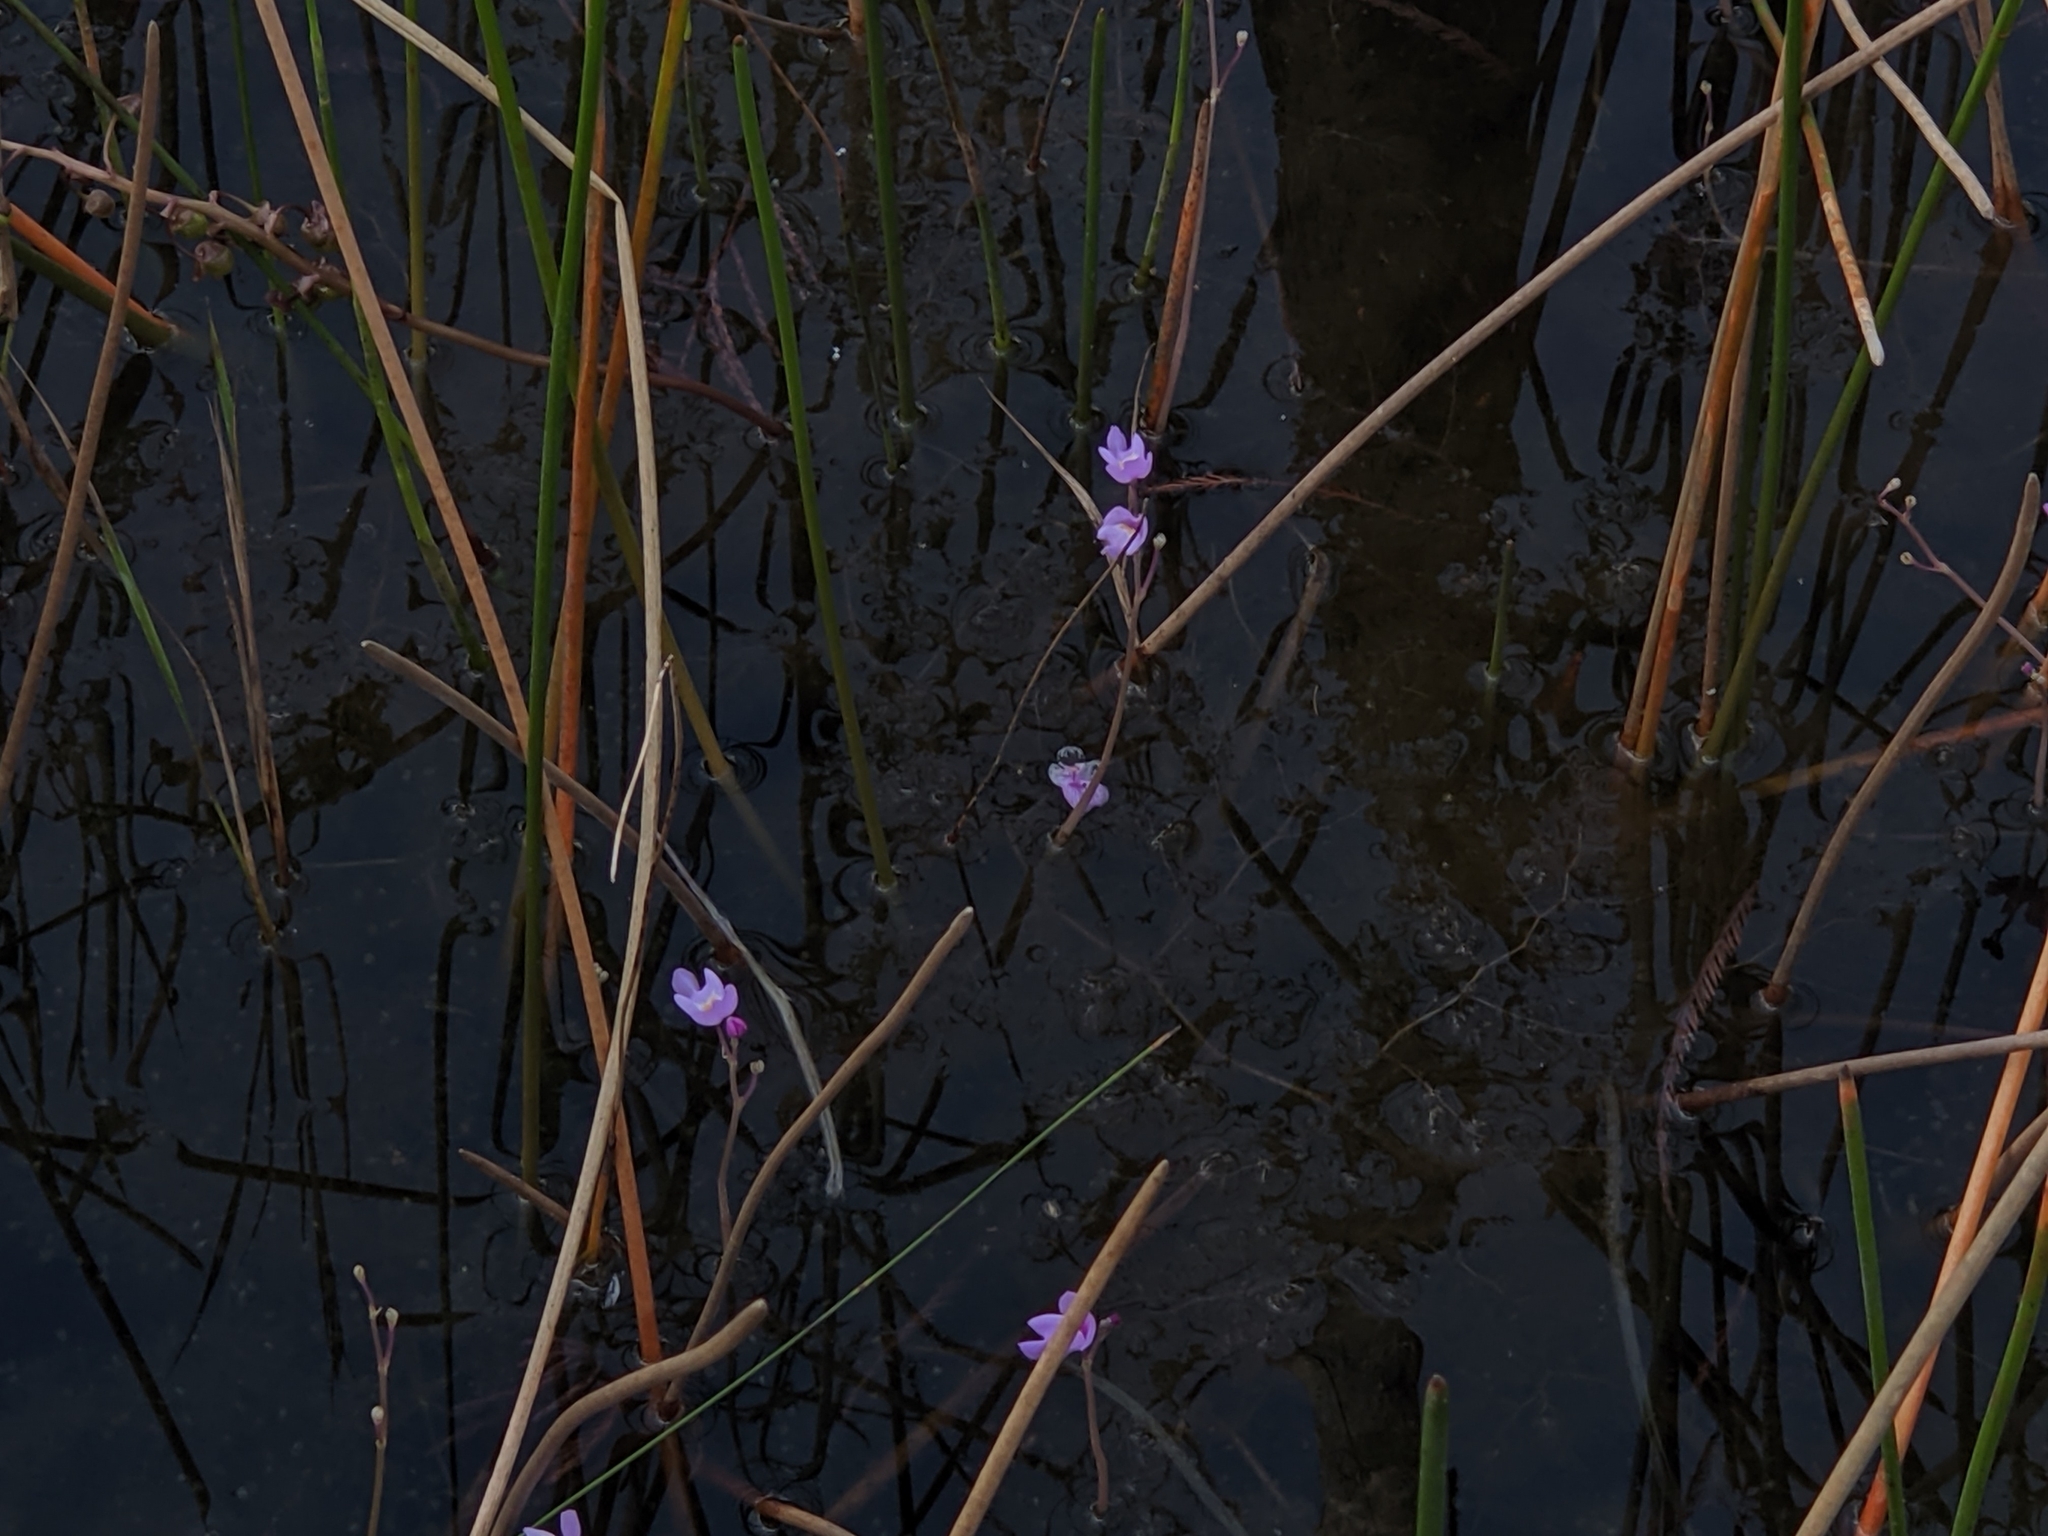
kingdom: Plantae
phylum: Tracheophyta
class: Magnoliopsida
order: Lamiales
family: Lentibulariaceae
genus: Utricularia
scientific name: Utricularia purpurea
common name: Eastern purple bladderwort
